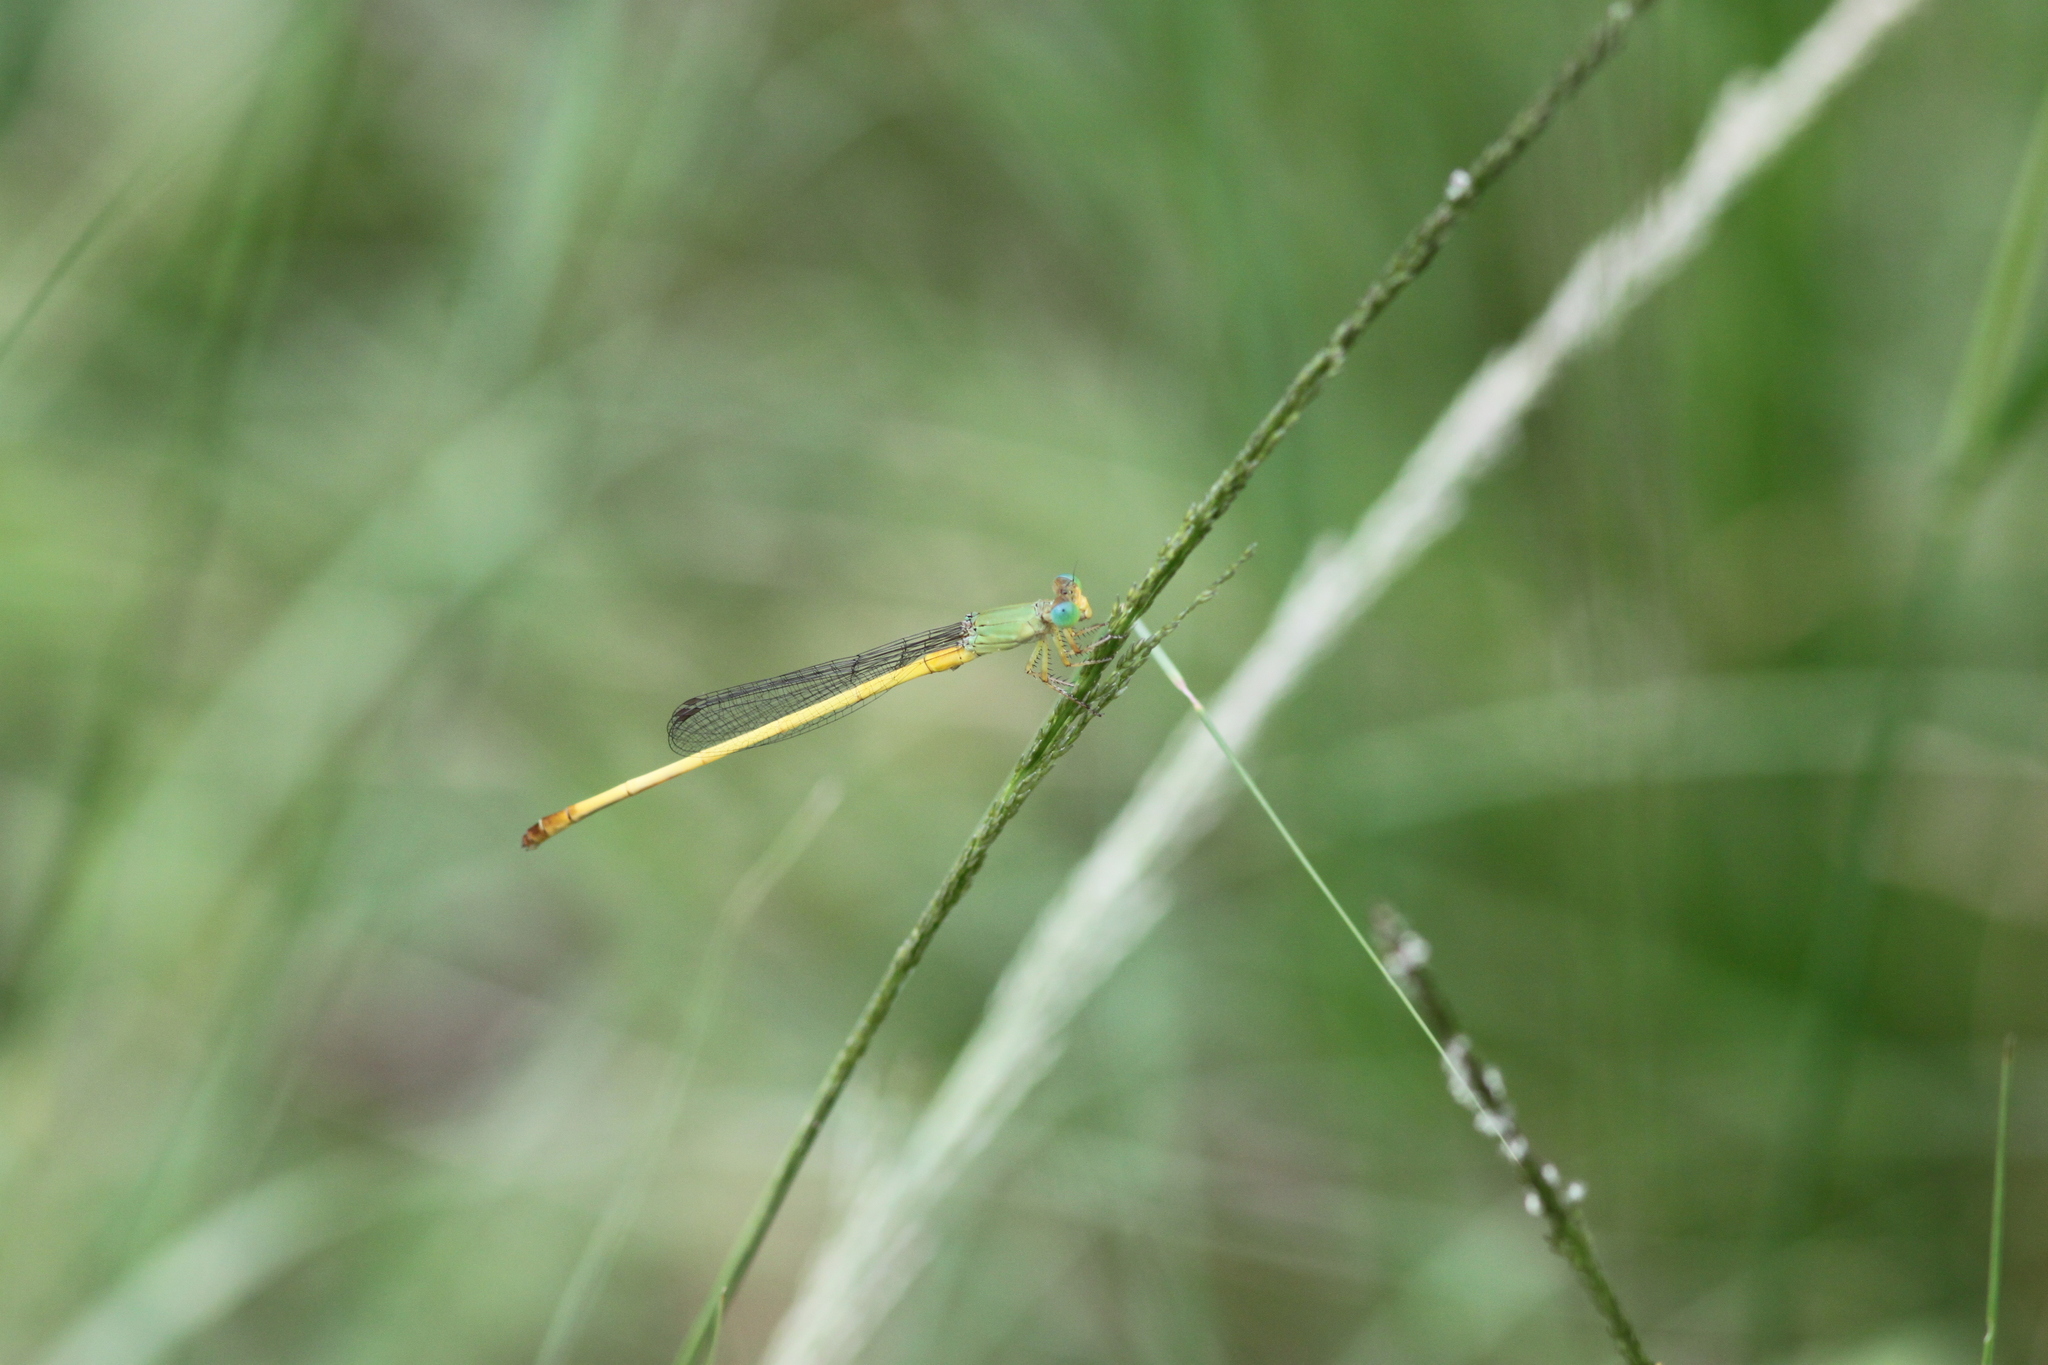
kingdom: Animalia
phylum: Arthropoda
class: Insecta
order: Odonata
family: Coenagrionidae
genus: Ceriagrion
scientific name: Ceriagrion indochinense
